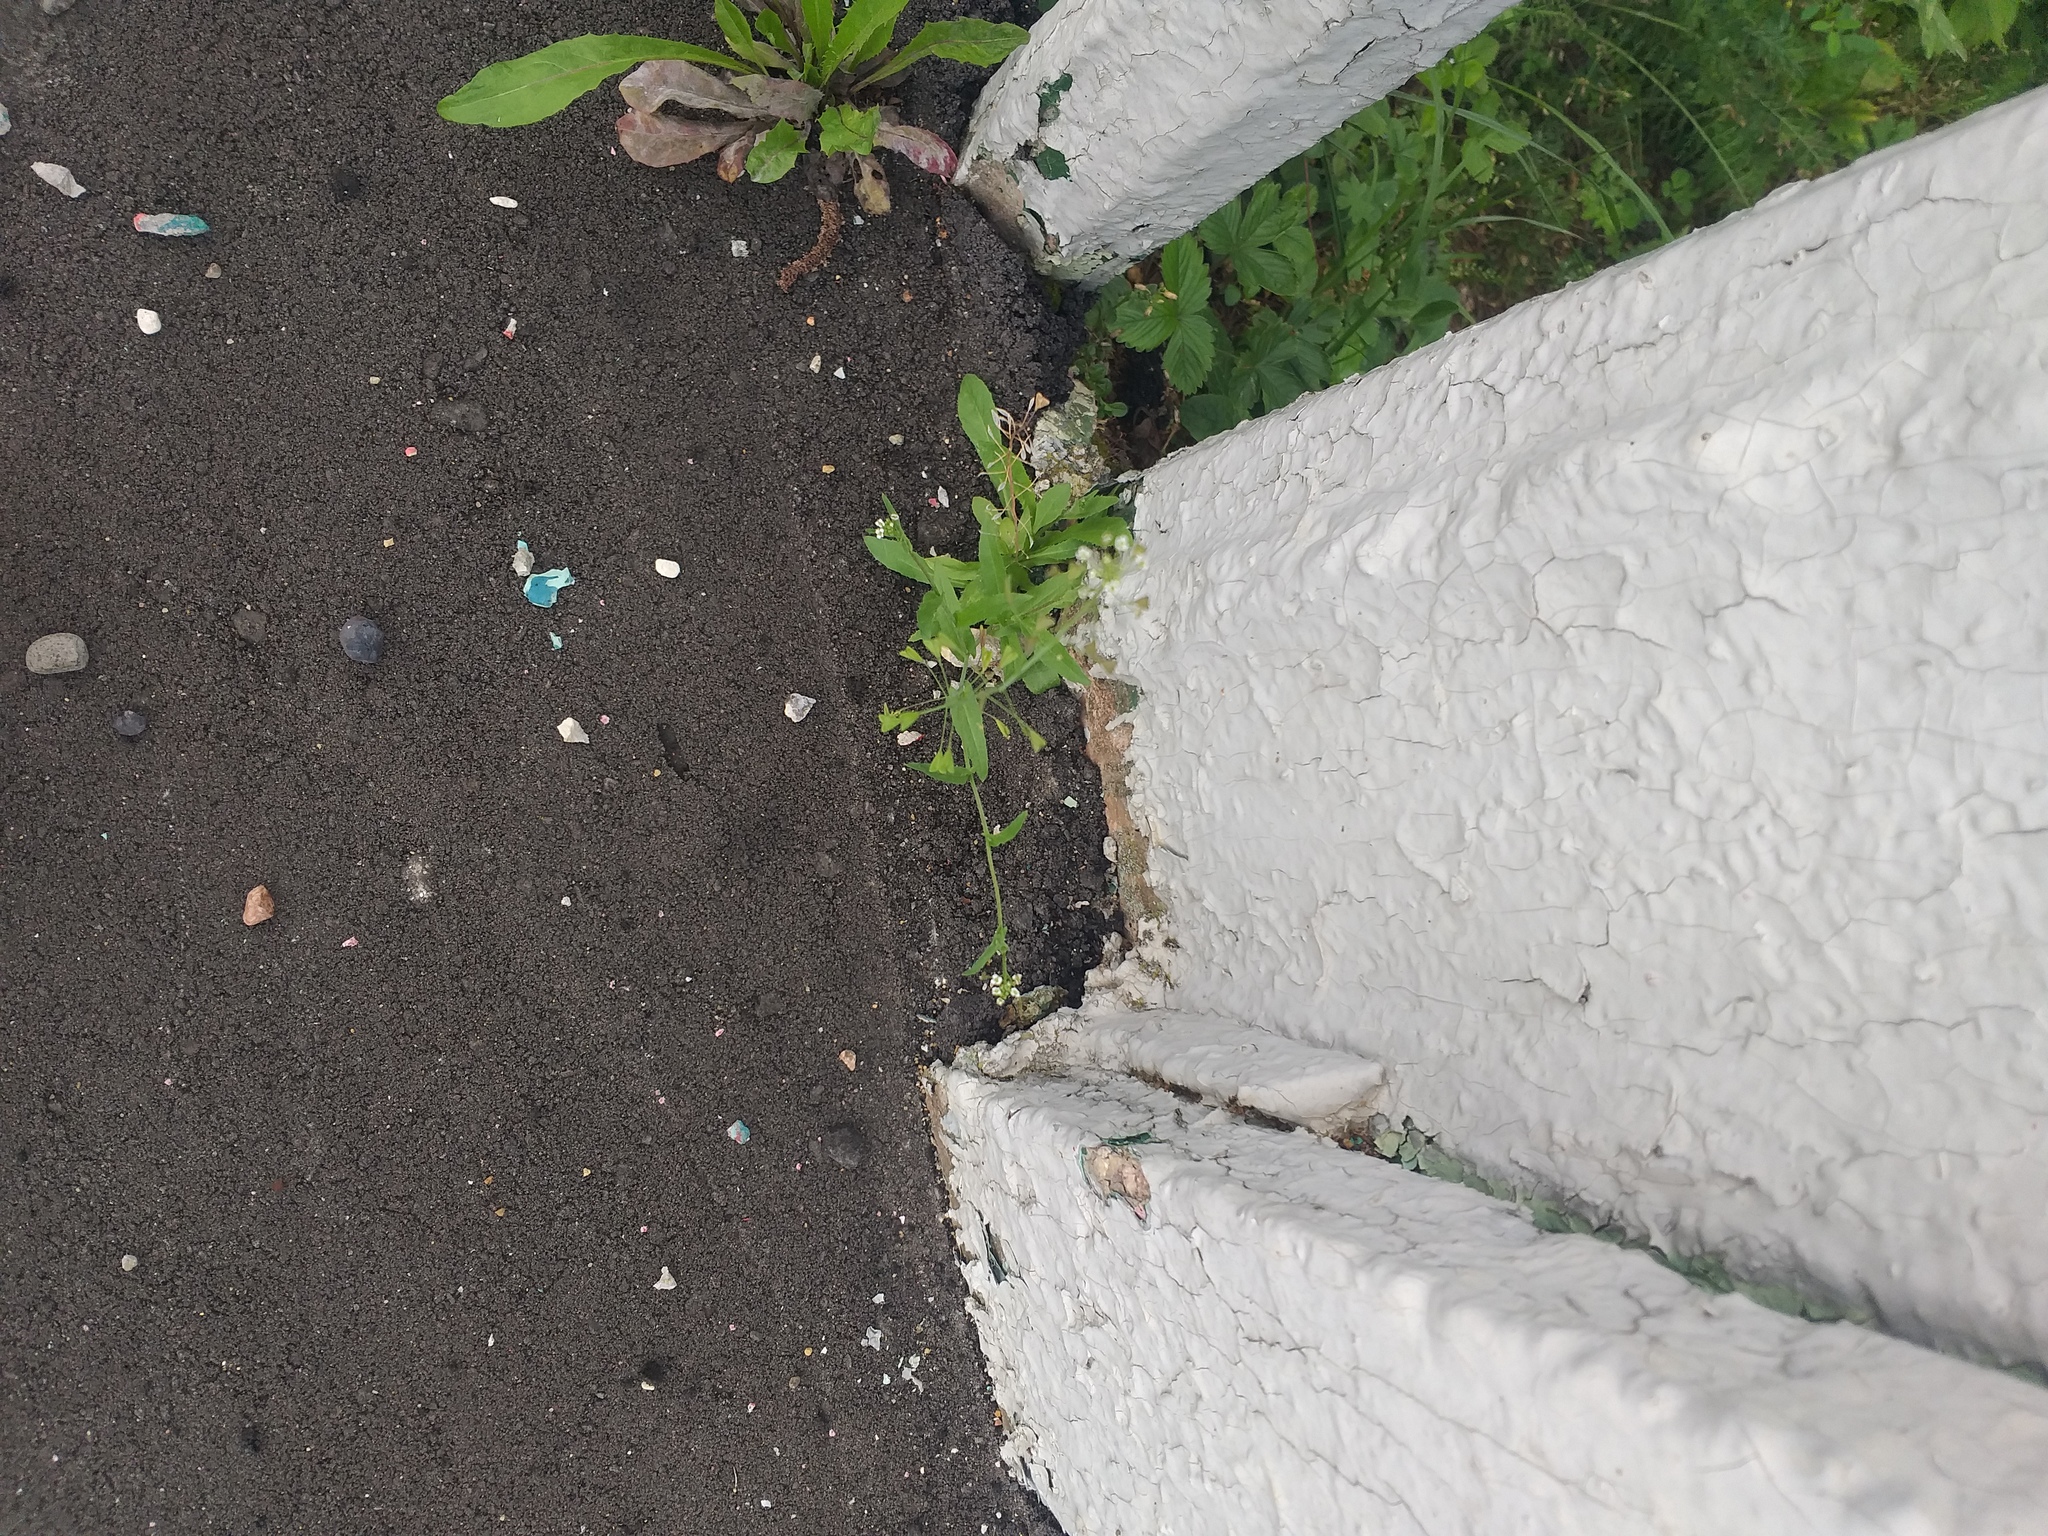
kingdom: Plantae
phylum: Tracheophyta
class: Magnoliopsida
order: Brassicales
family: Brassicaceae
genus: Capsella
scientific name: Capsella bursa-pastoris
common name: Shepherd's purse
